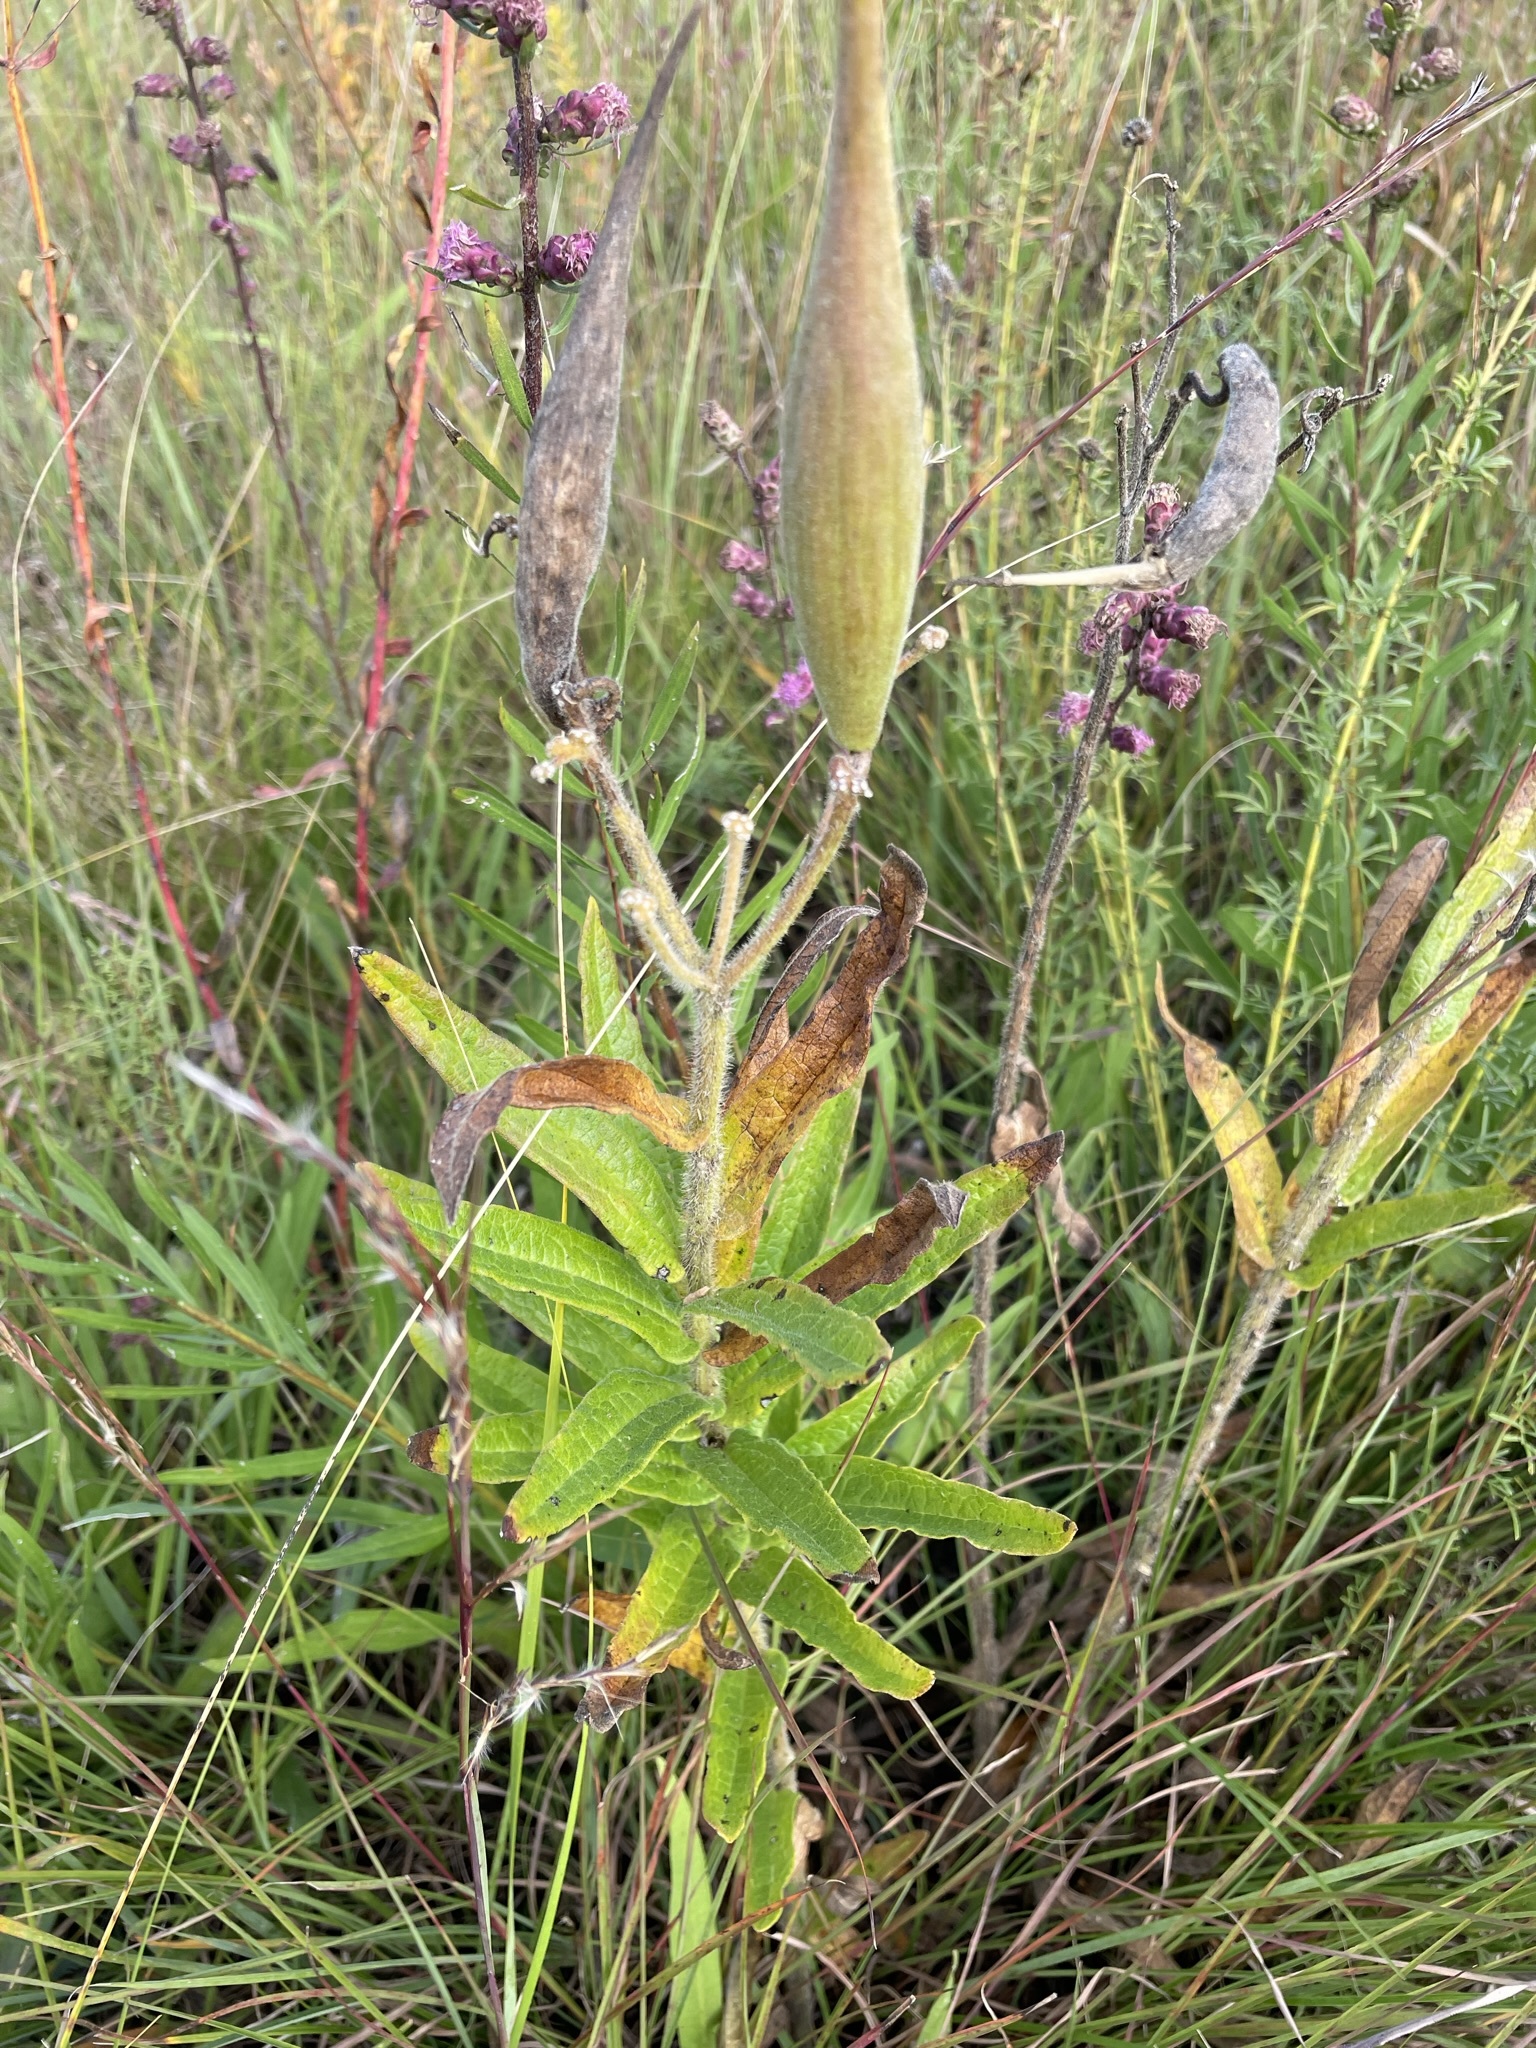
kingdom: Plantae
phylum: Tracheophyta
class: Magnoliopsida
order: Gentianales
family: Apocynaceae
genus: Asclepias
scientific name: Asclepias tuberosa
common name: Butterfly milkweed
